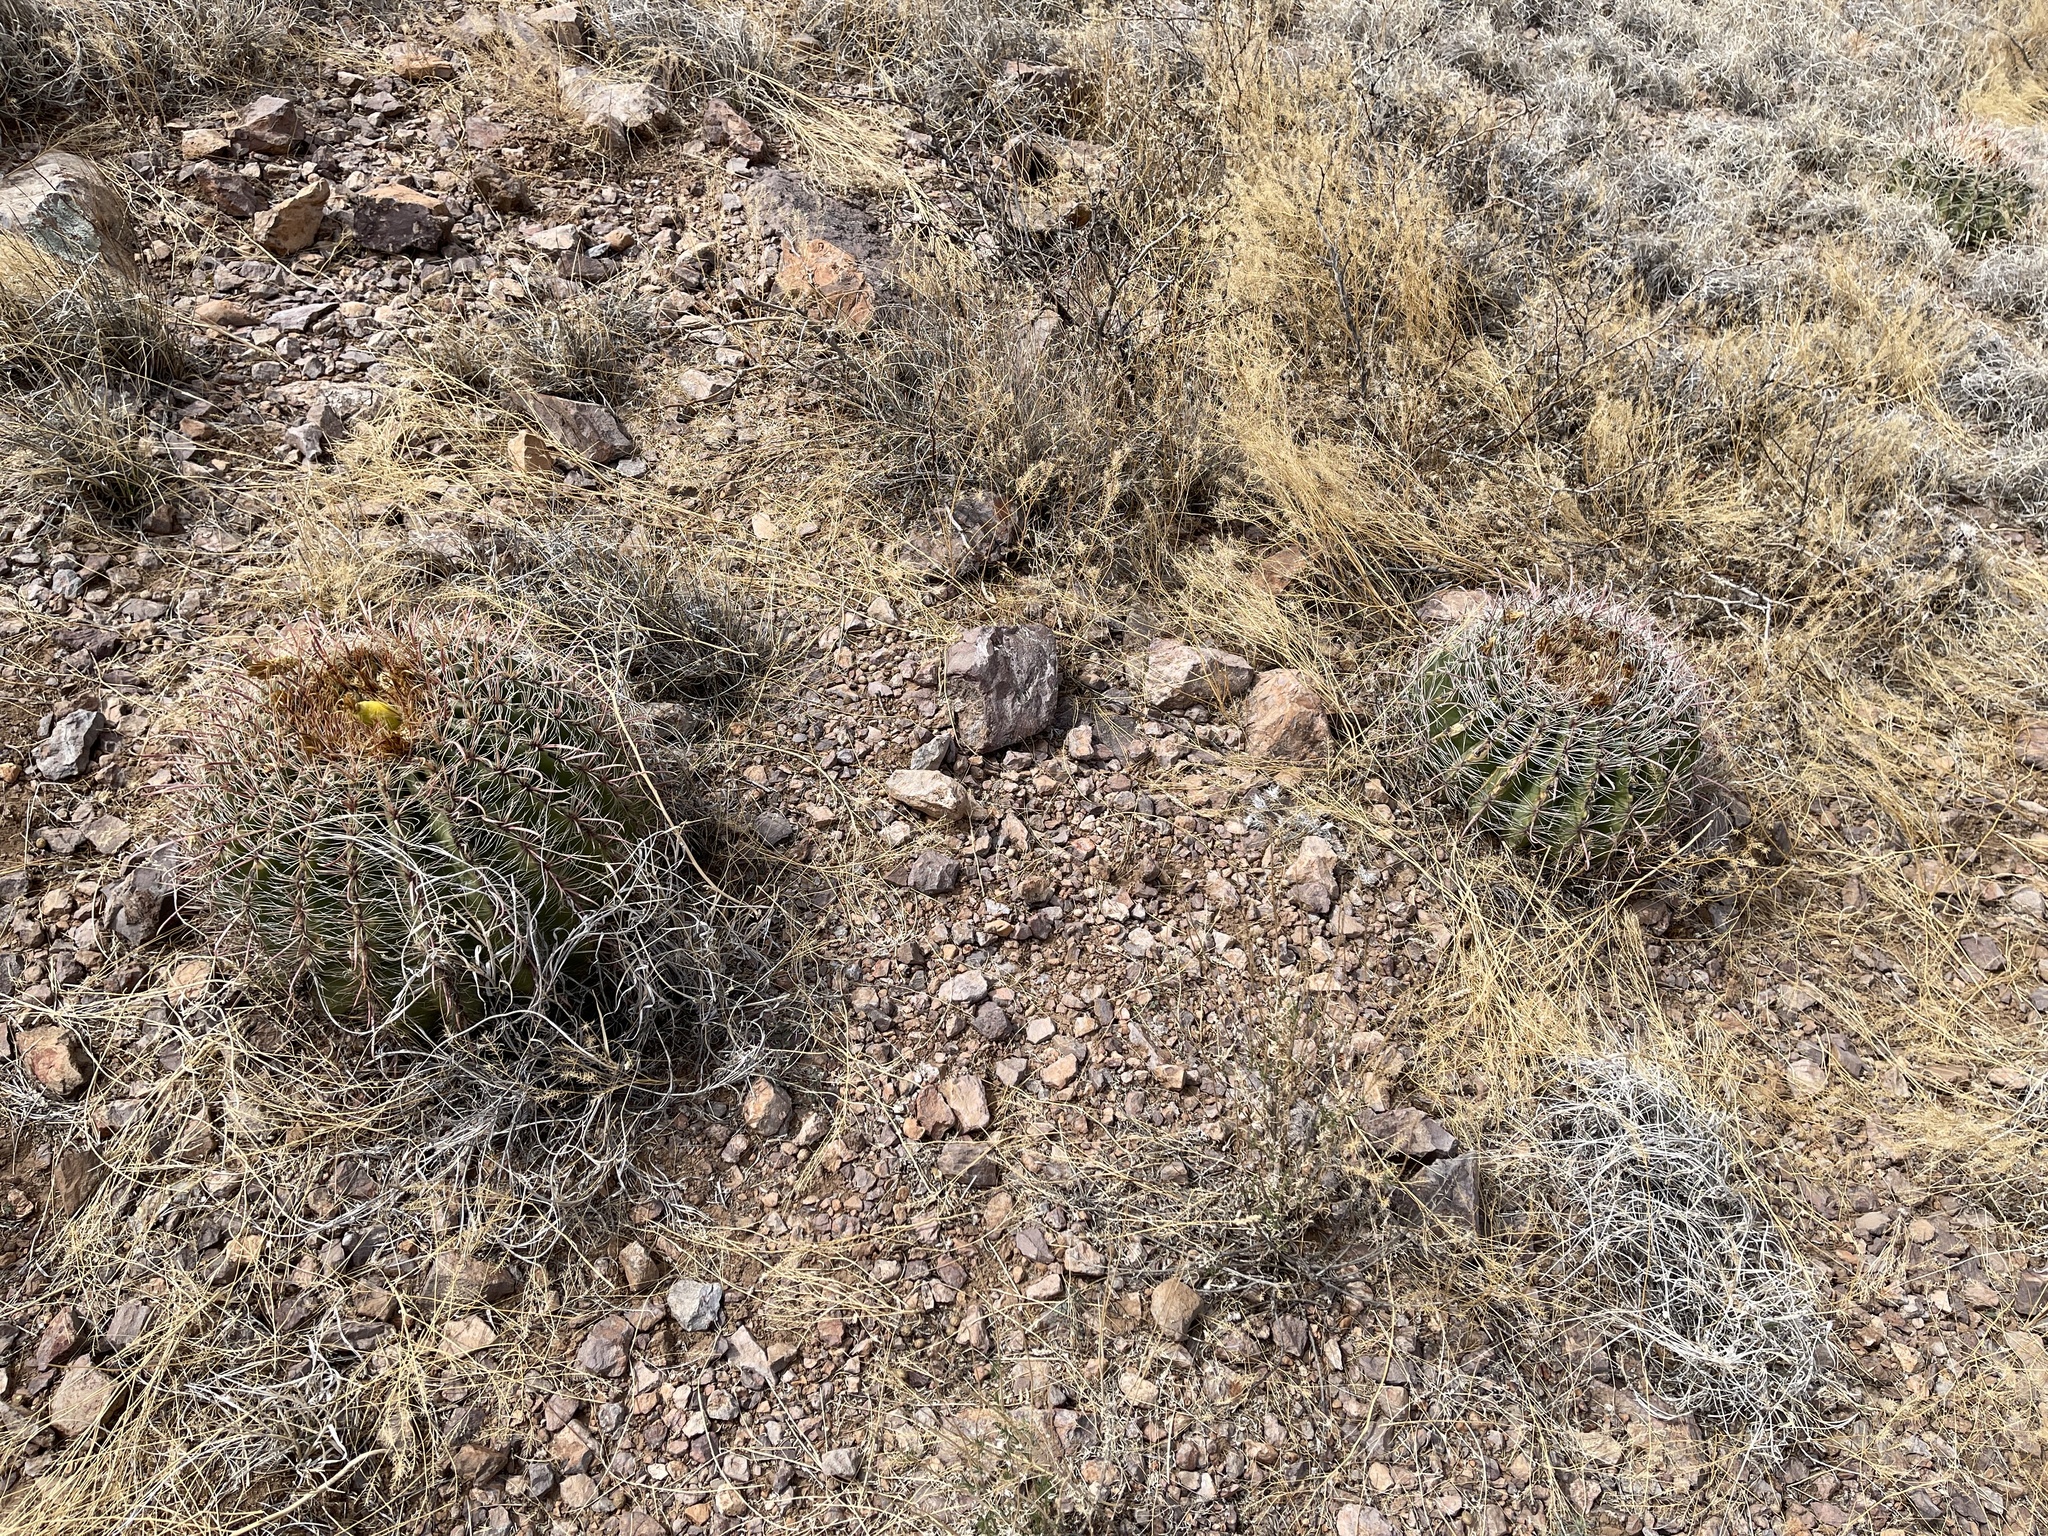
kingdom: Plantae
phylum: Tracheophyta
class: Magnoliopsida
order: Caryophyllales
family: Cactaceae
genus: Ferocactus
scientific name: Ferocactus wislizeni
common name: Candy barrel cactus
